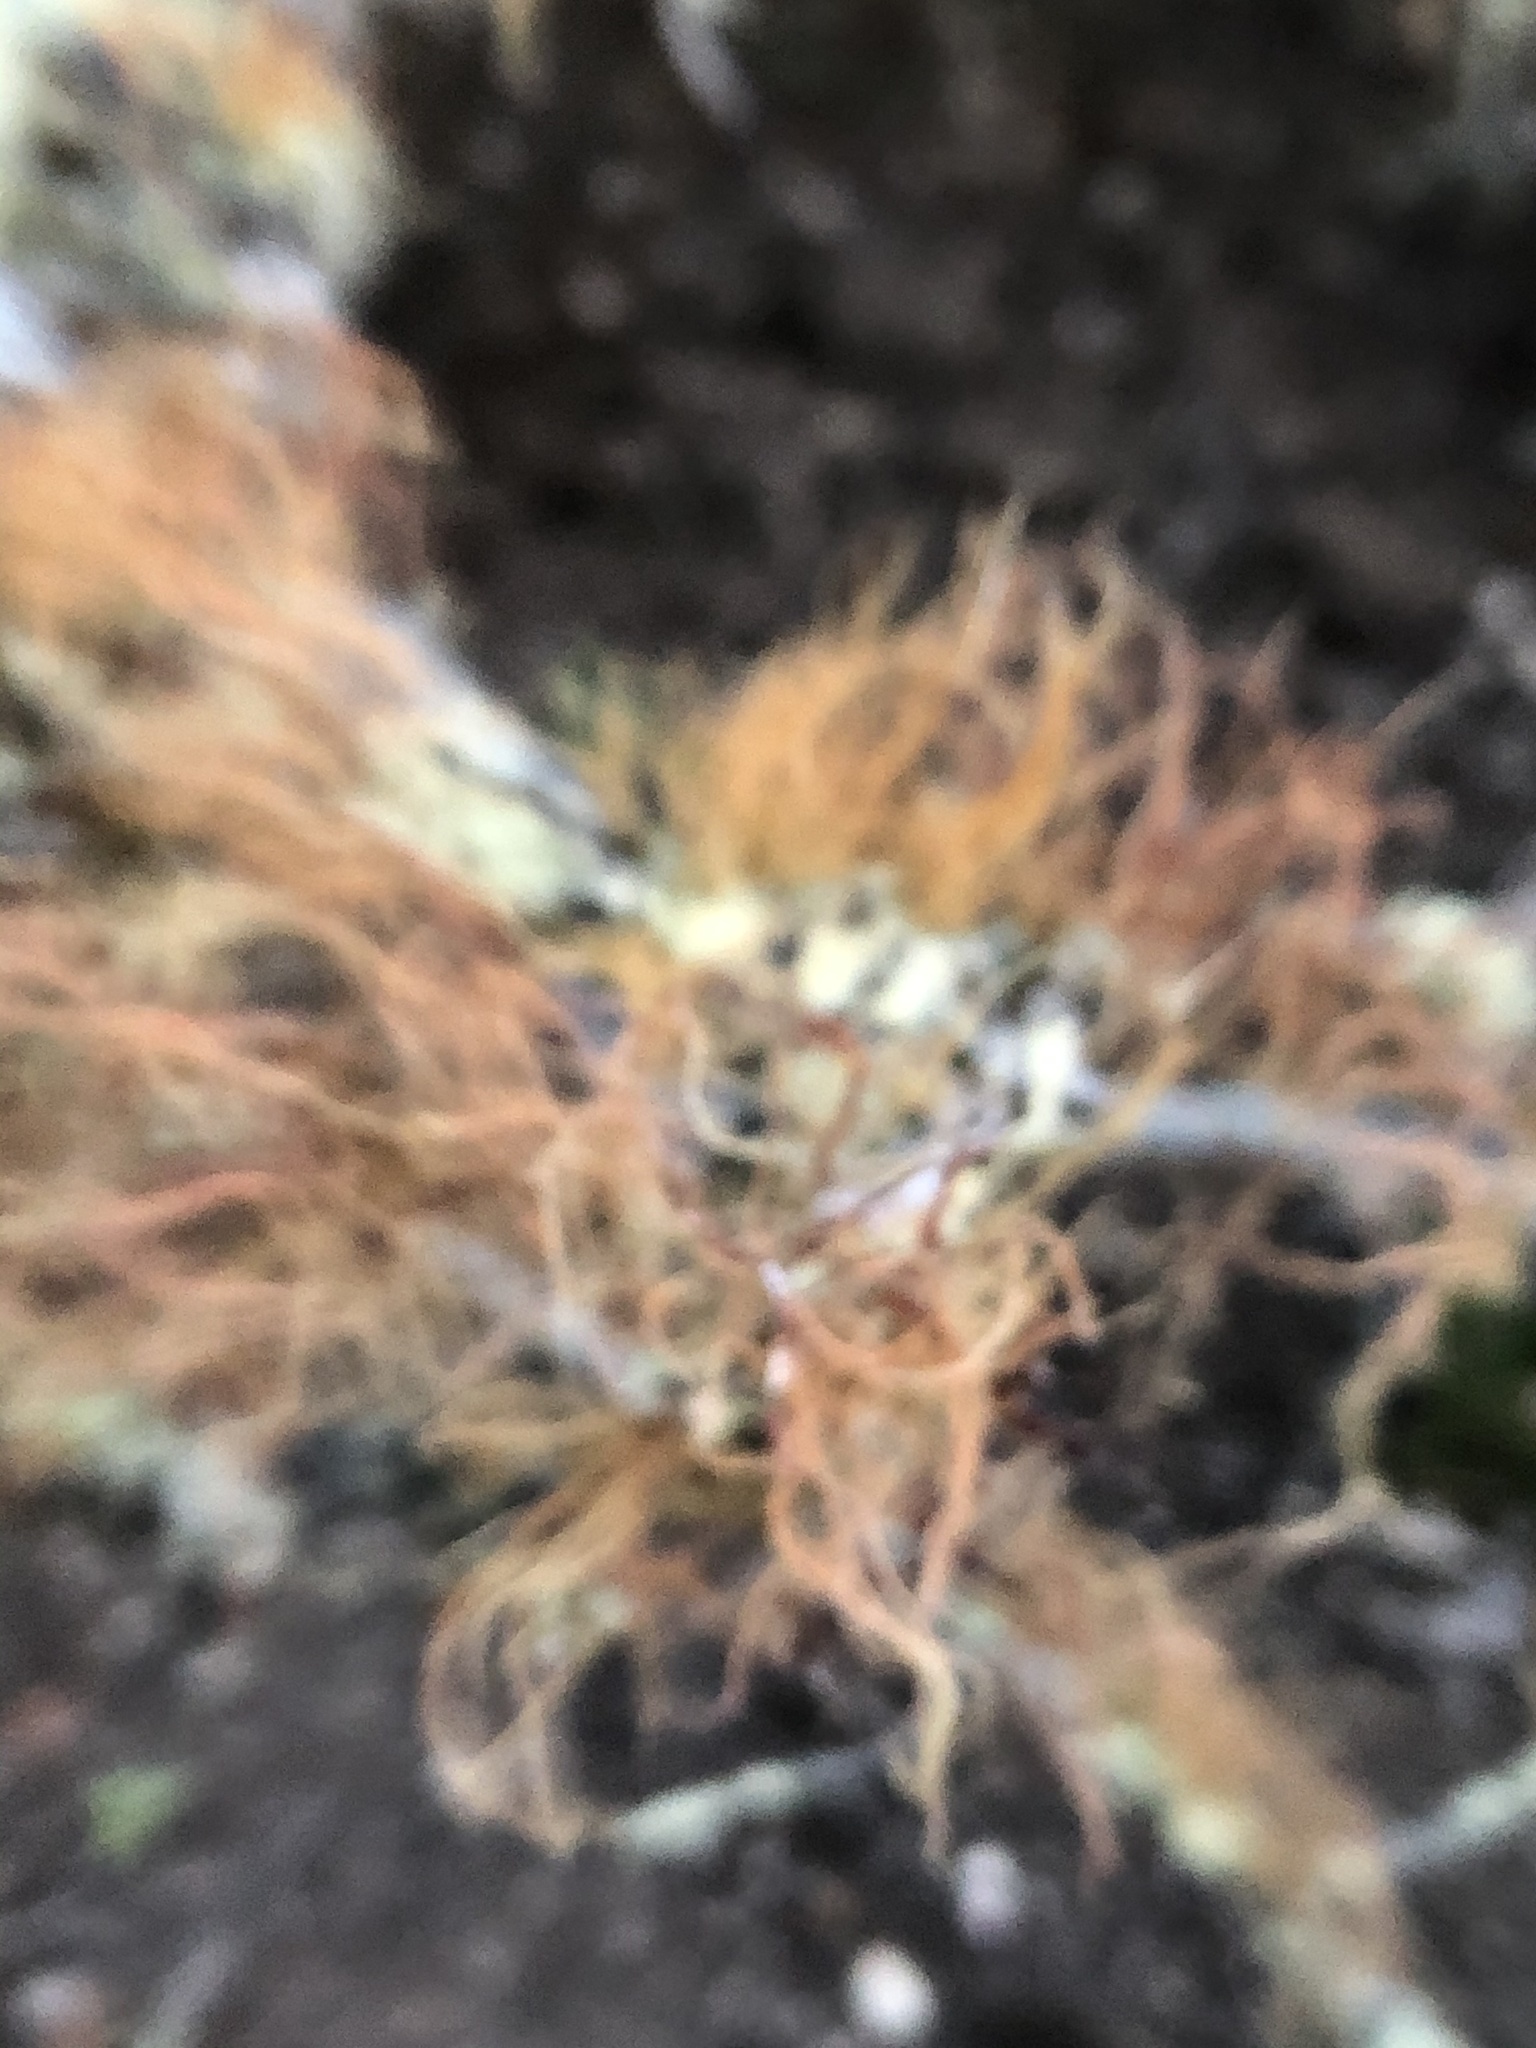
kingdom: Fungi
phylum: Ascomycota
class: Lecanoromycetes
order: Lecanorales
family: Parmeliaceae
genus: Usnea
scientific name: Usnea rubicunda
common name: Red beard lichen
